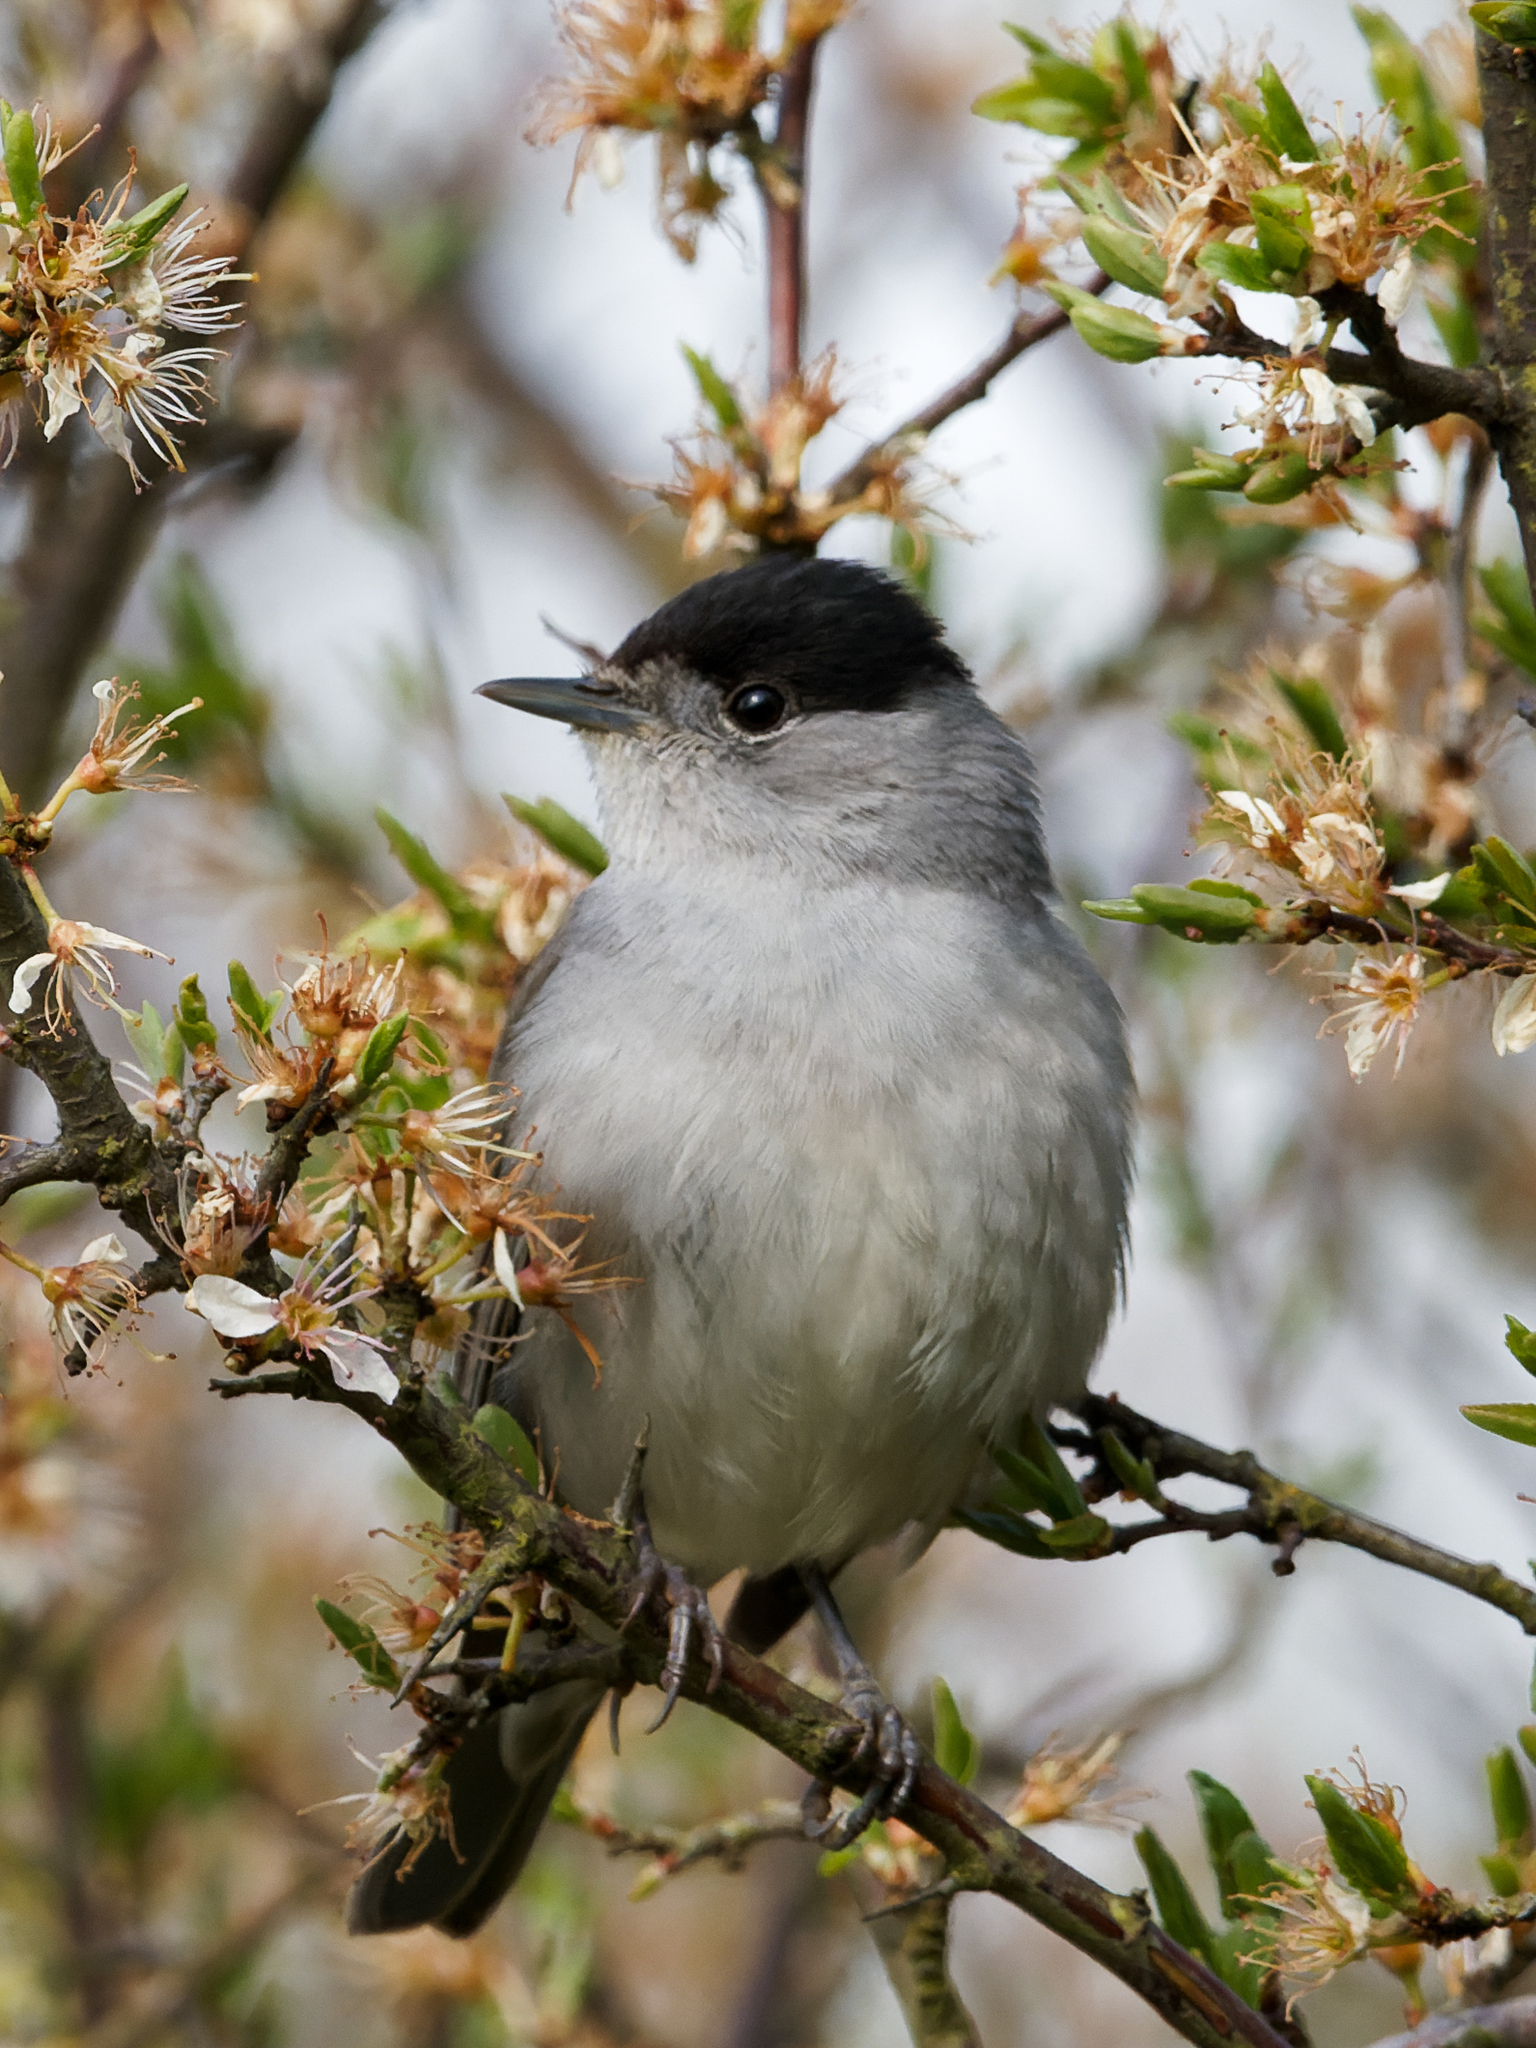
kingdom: Animalia
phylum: Chordata
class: Aves
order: Passeriformes
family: Sylviidae
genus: Sylvia
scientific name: Sylvia atricapilla
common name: Eurasian blackcap
